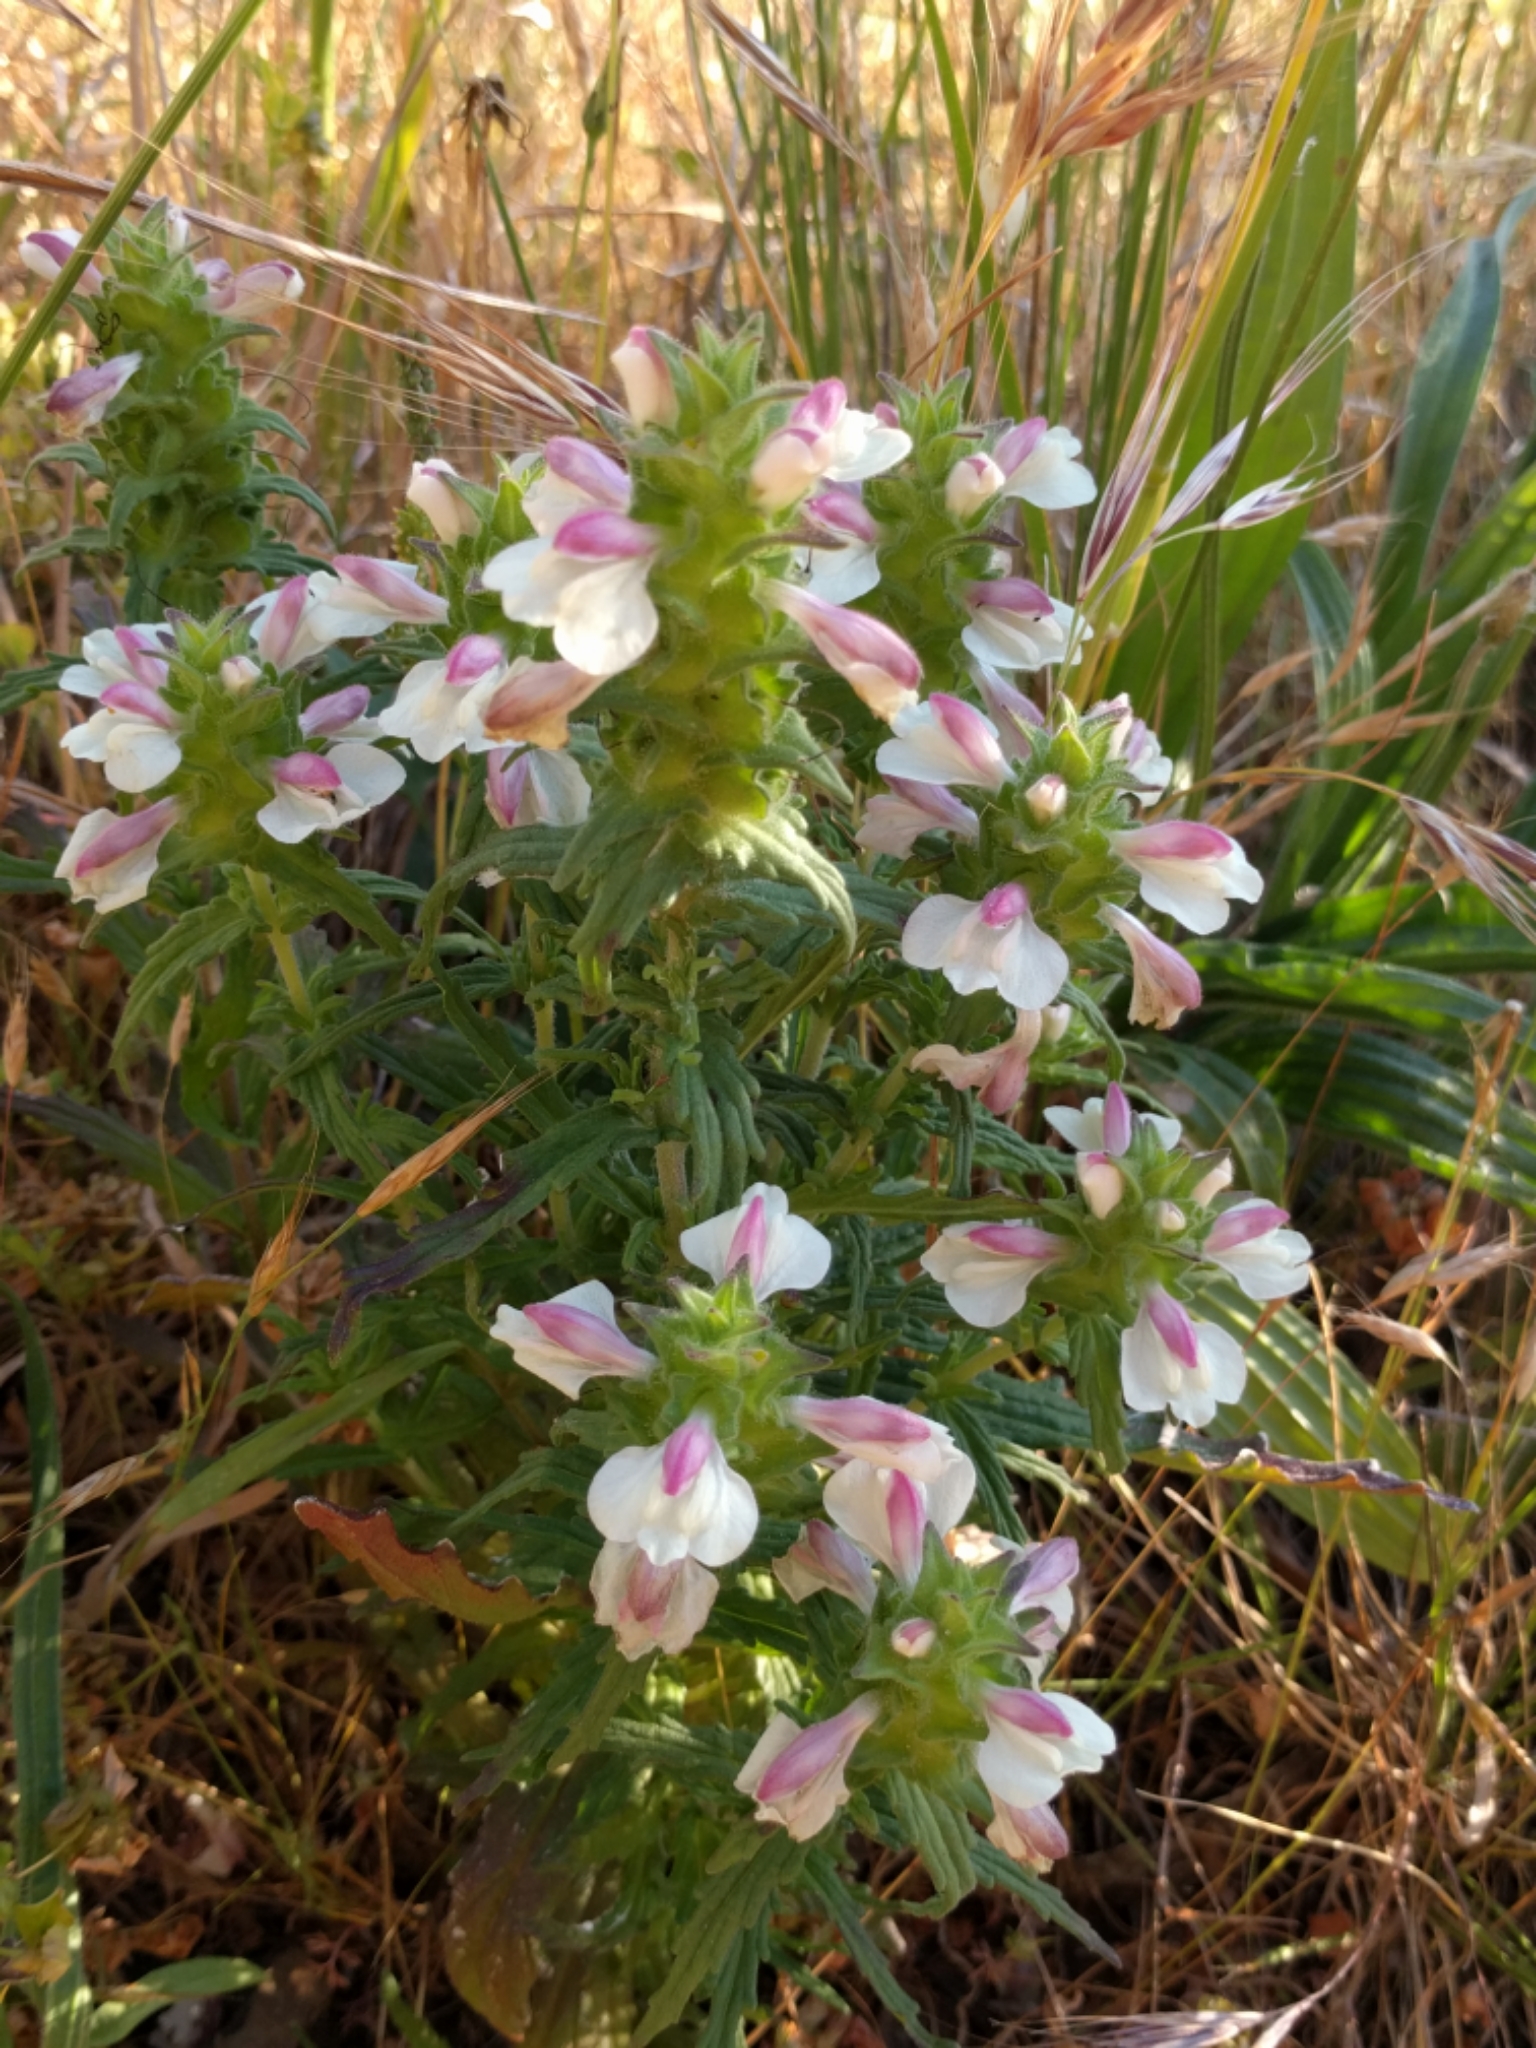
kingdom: Plantae
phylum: Tracheophyta
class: Magnoliopsida
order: Lamiales
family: Orobanchaceae
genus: Bellardia
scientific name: Bellardia trixago
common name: Mediterranean lineseed
